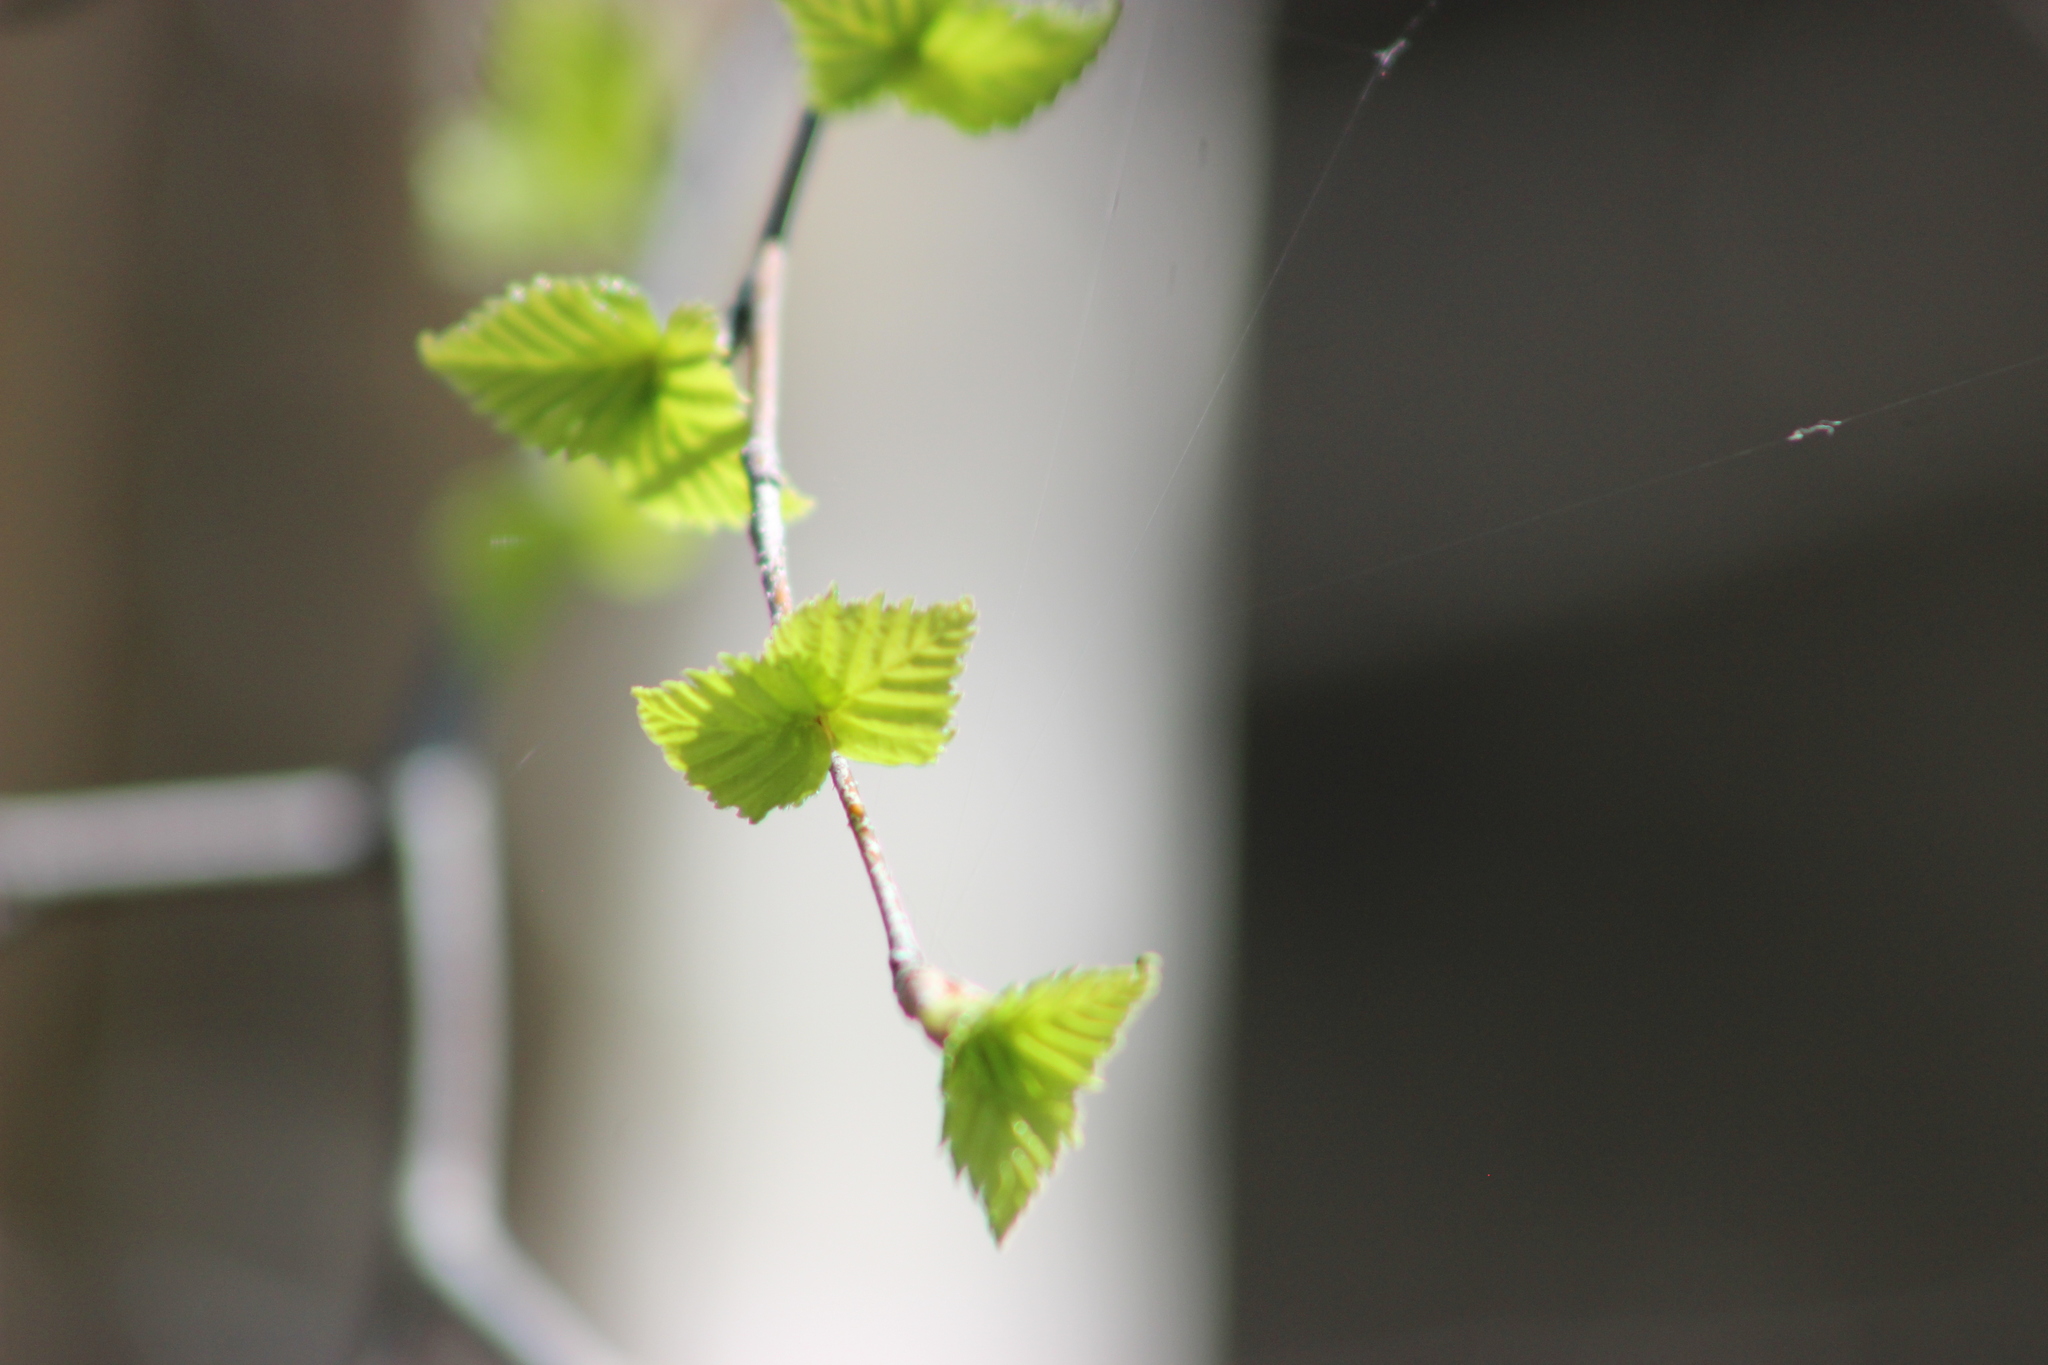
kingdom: Plantae
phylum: Tracheophyta
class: Magnoliopsida
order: Fagales
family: Betulaceae
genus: Betula
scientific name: Betula pubescens
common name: Downy birch
